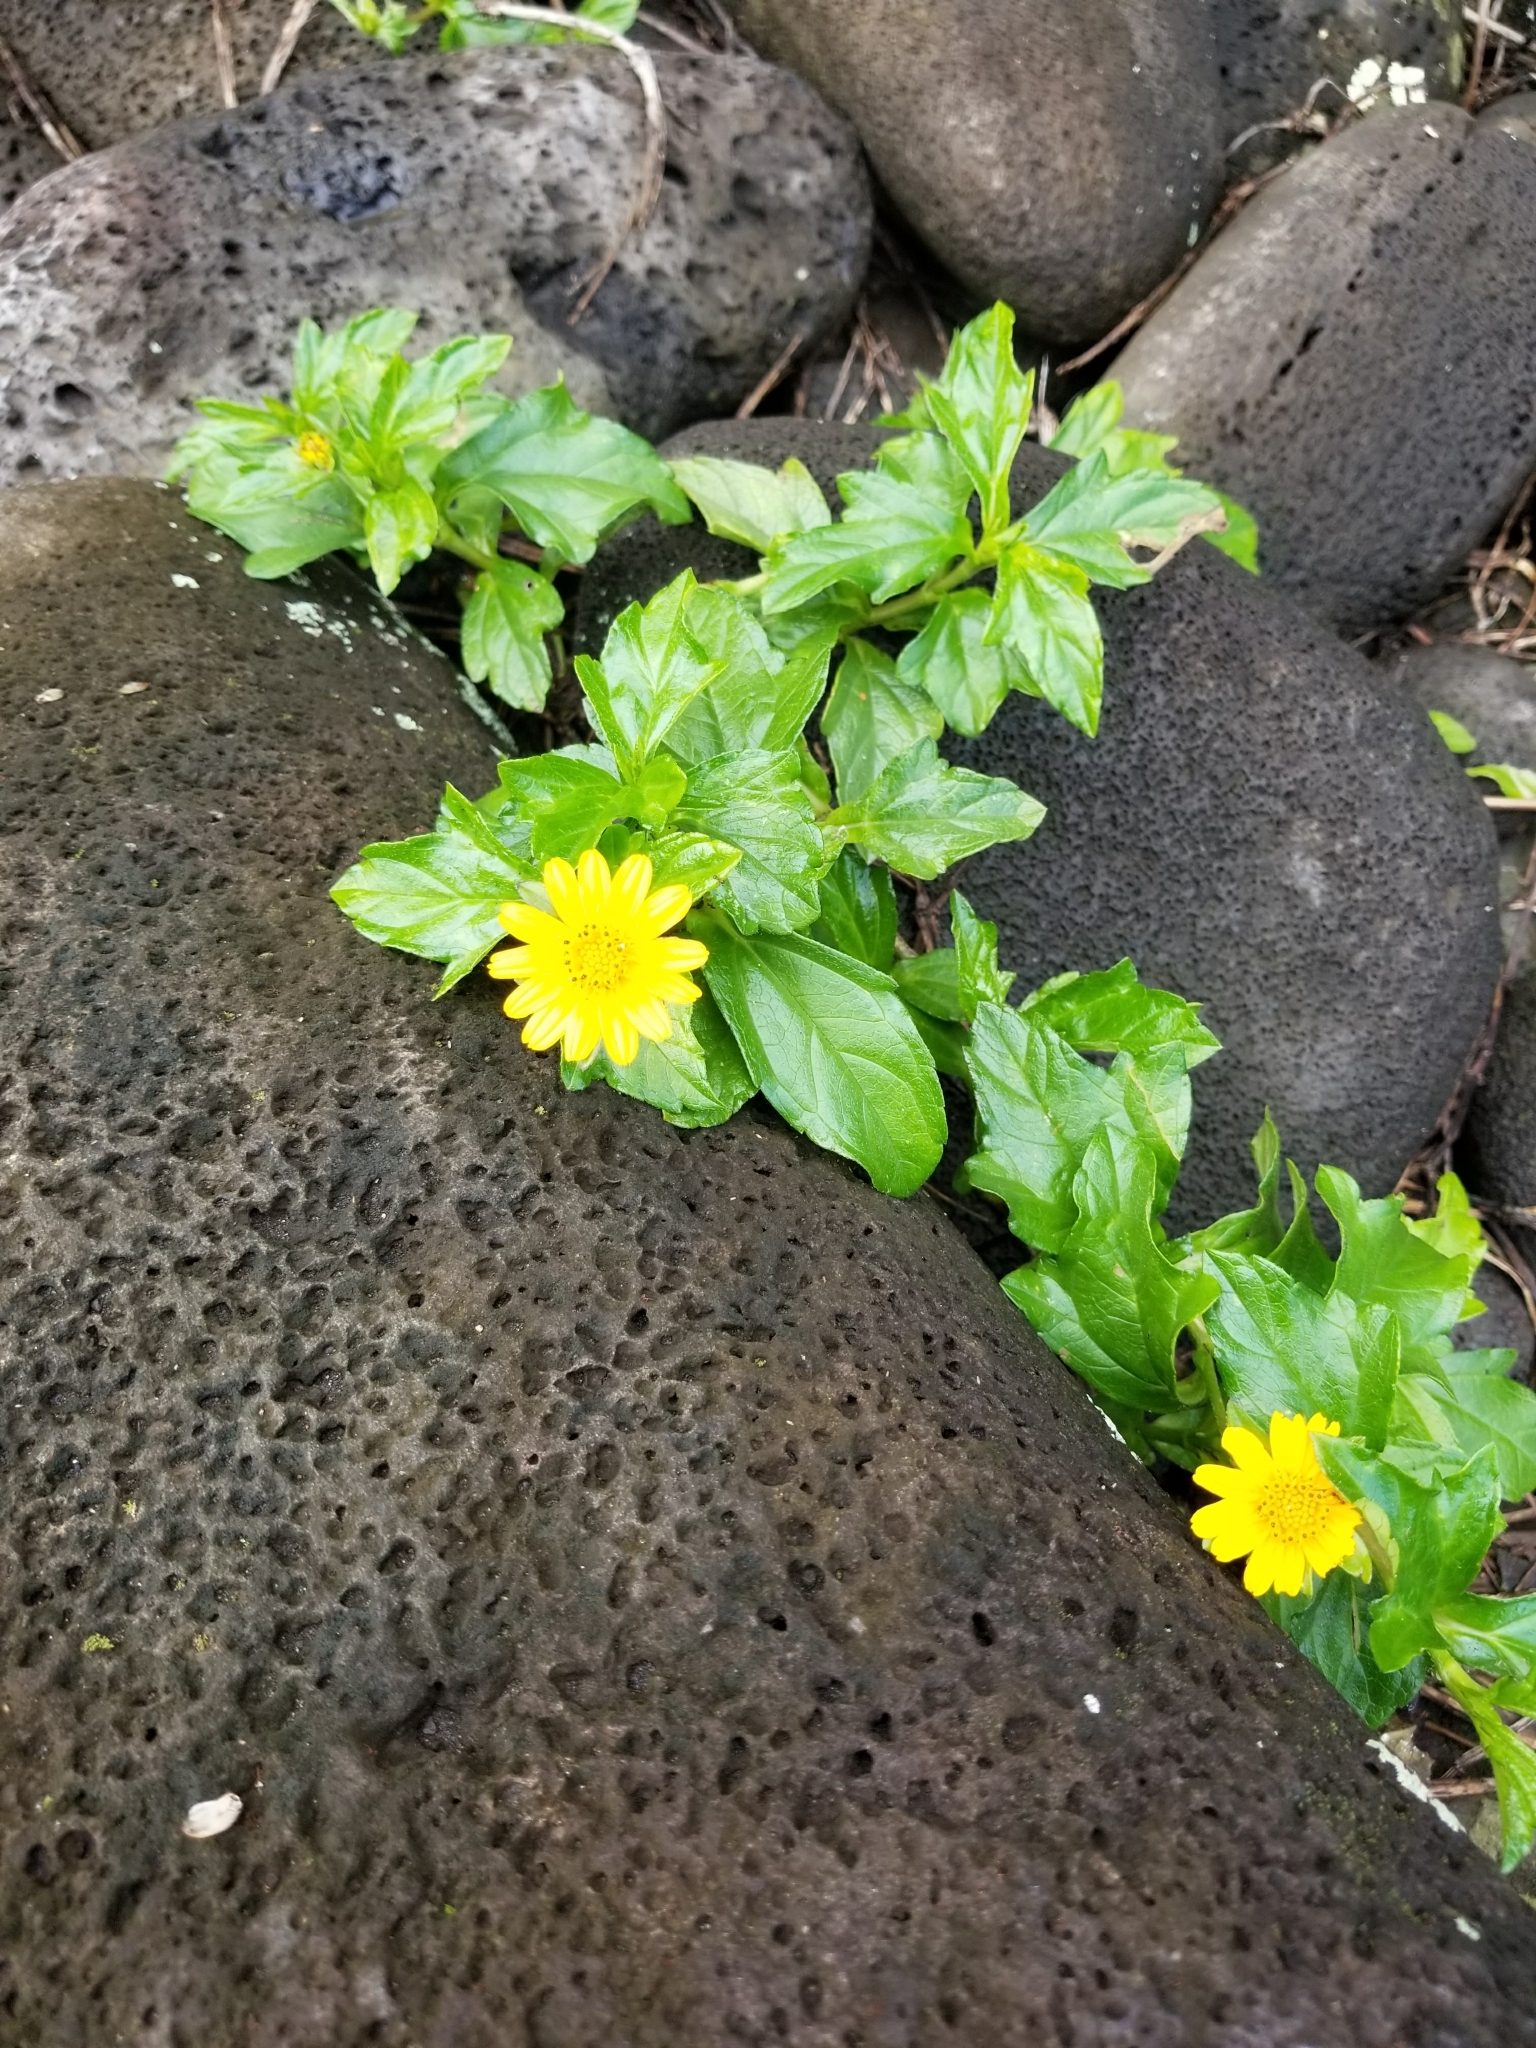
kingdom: Plantae
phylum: Tracheophyta
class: Magnoliopsida
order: Asterales
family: Asteraceae
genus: Sphagneticola
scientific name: Sphagneticola trilobata
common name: Bay biscayne creeping-oxeye
